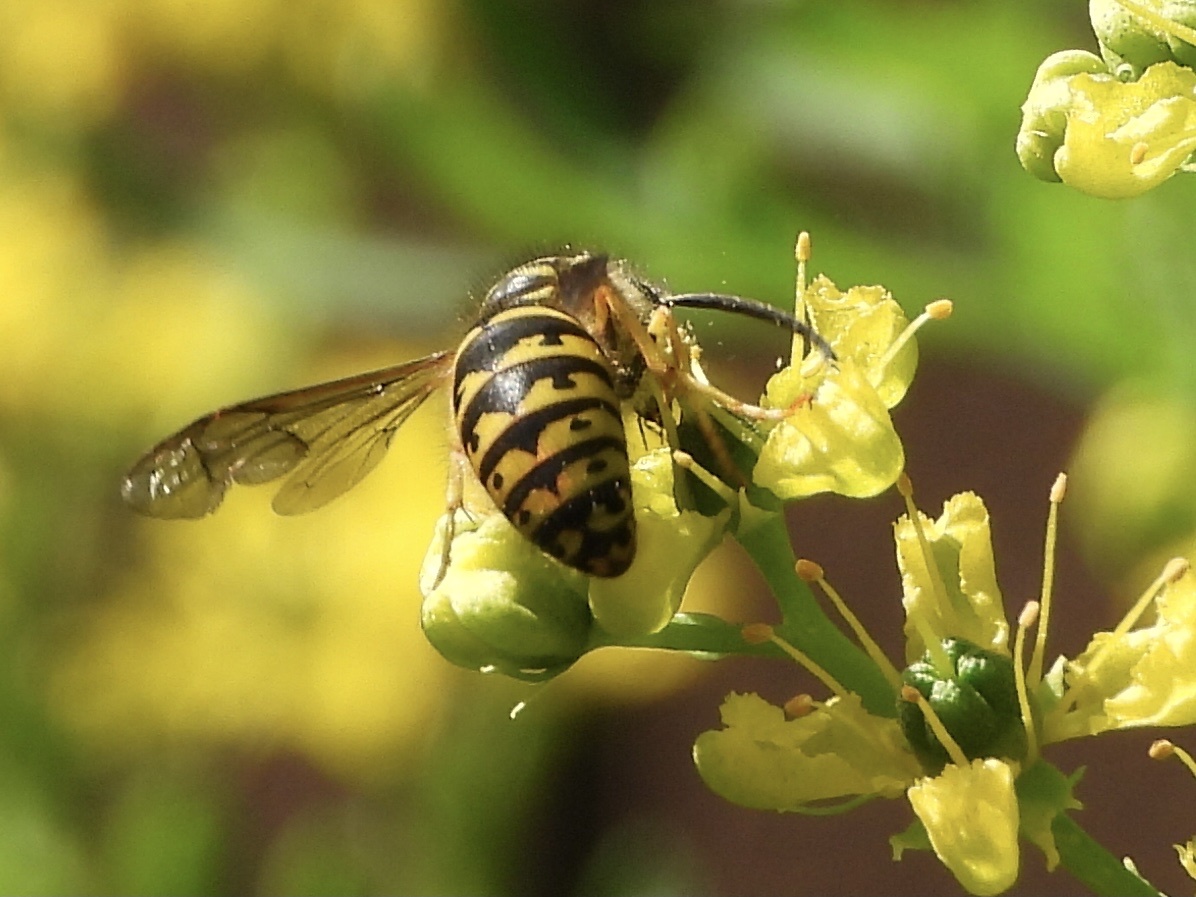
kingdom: Animalia
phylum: Arthropoda
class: Insecta
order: Hymenoptera
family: Vespidae
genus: Dolichovespula
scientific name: Dolichovespula arenaria
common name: Aerial yellowjacket
